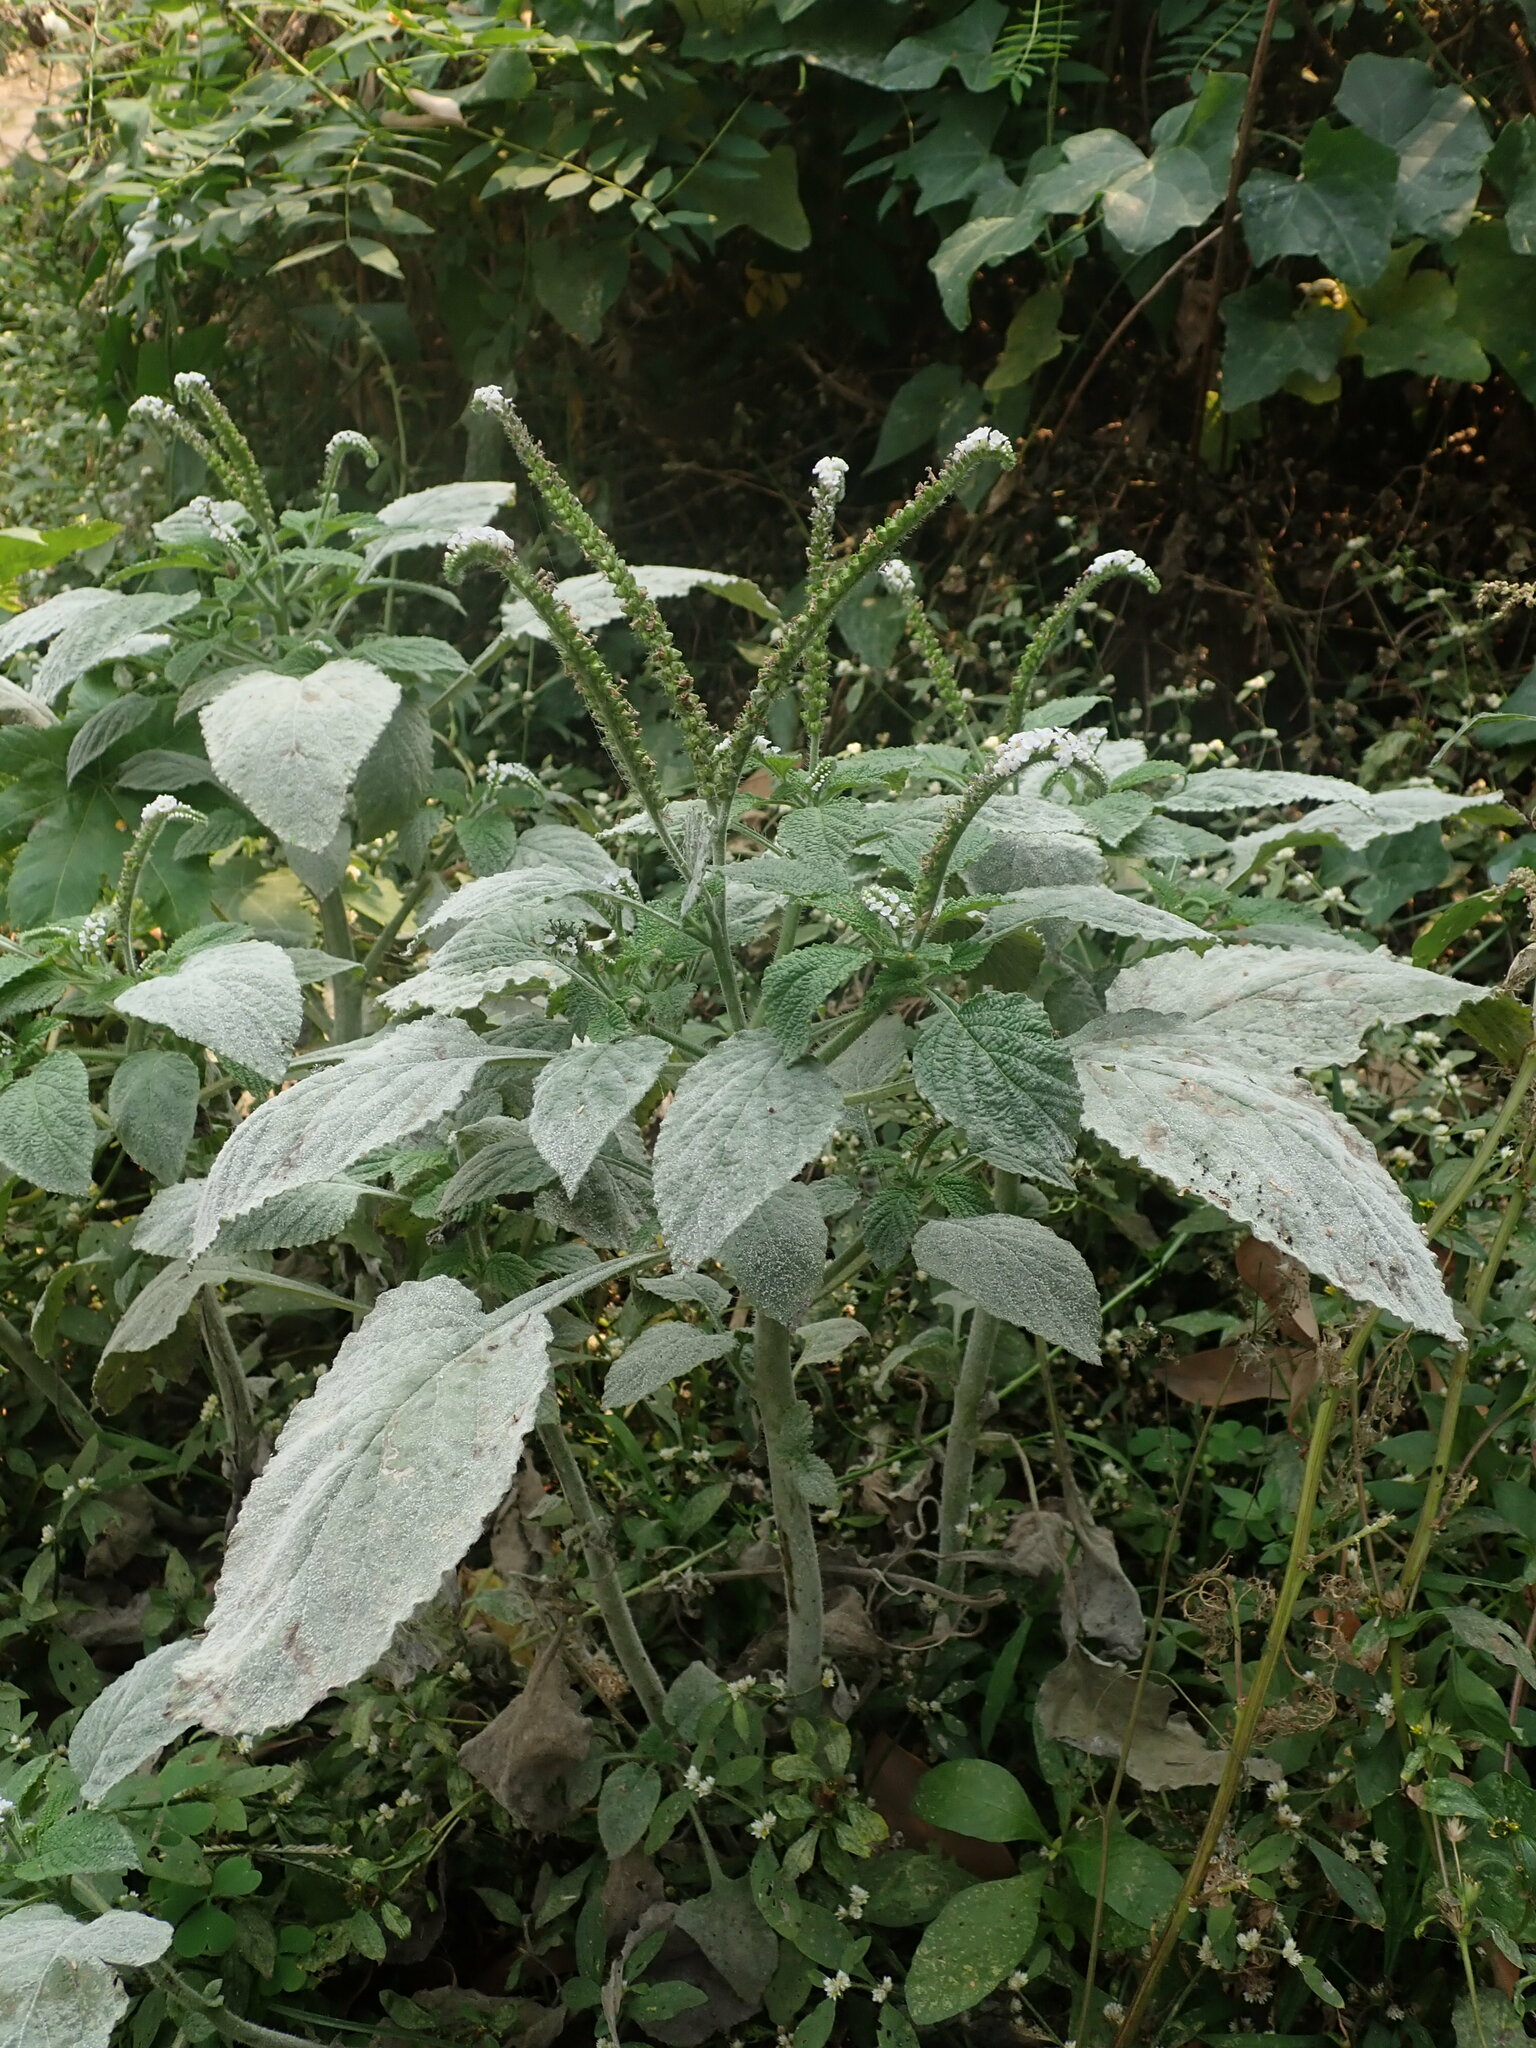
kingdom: Plantae
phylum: Tracheophyta
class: Magnoliopsida
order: Boraginales
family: Heliotropiaceae
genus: Heliotropium
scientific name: Heliotropium indicum
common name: Indian heliotrope
